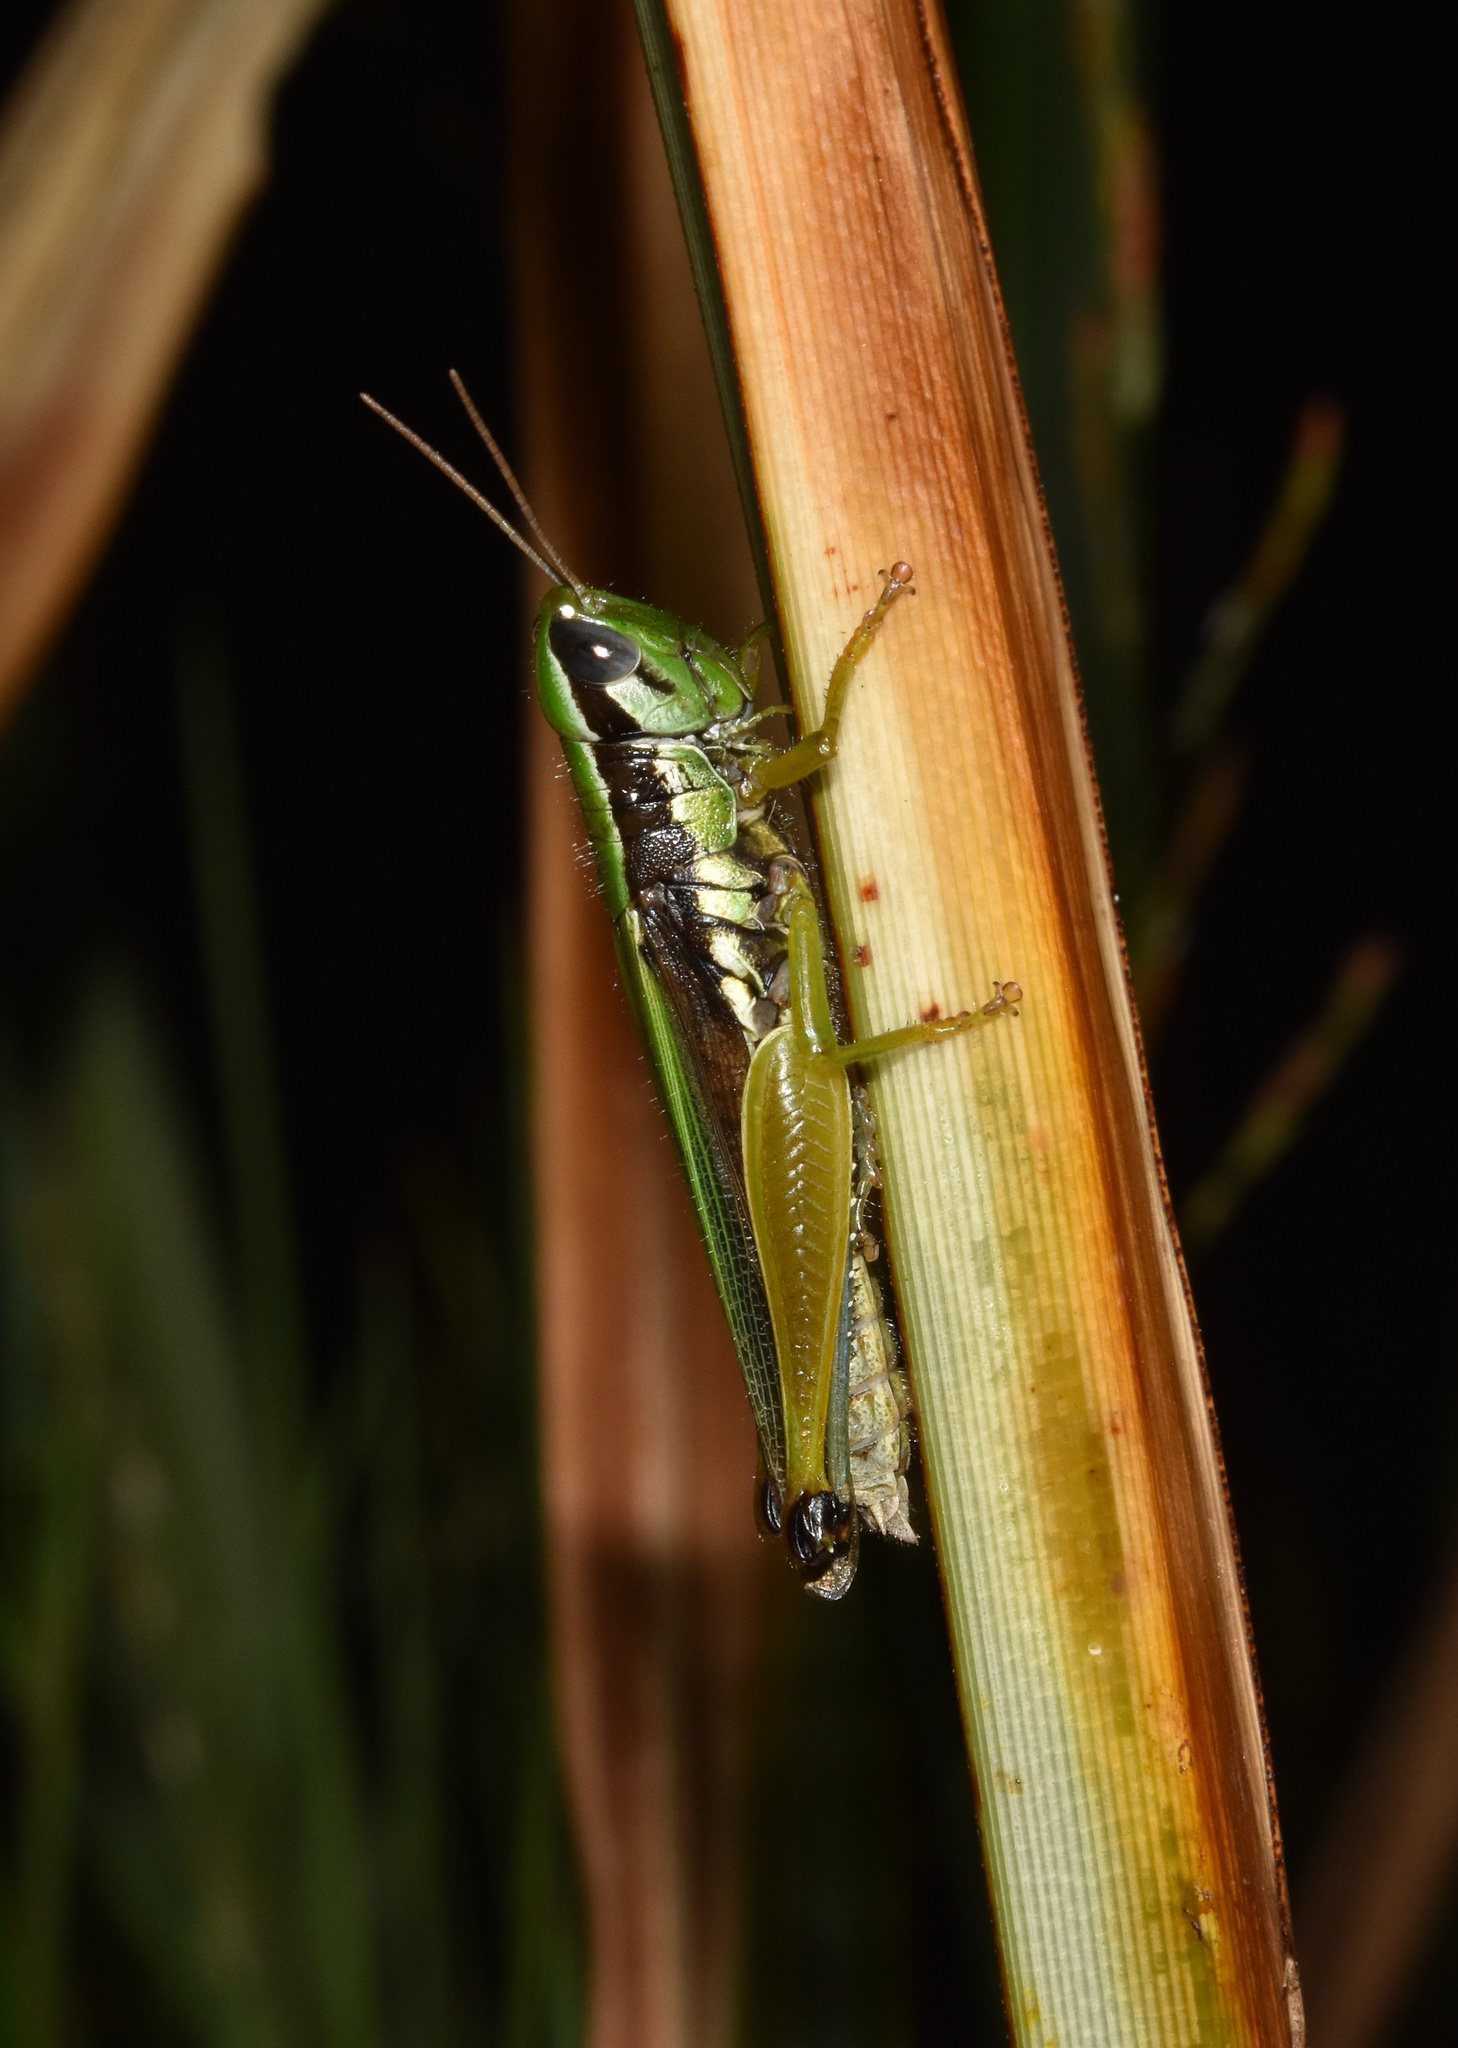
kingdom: Animalia
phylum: Arthropoda
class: Insecta
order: Orthoptera
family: Acrididae
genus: Oxya
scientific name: Oxya hyla
